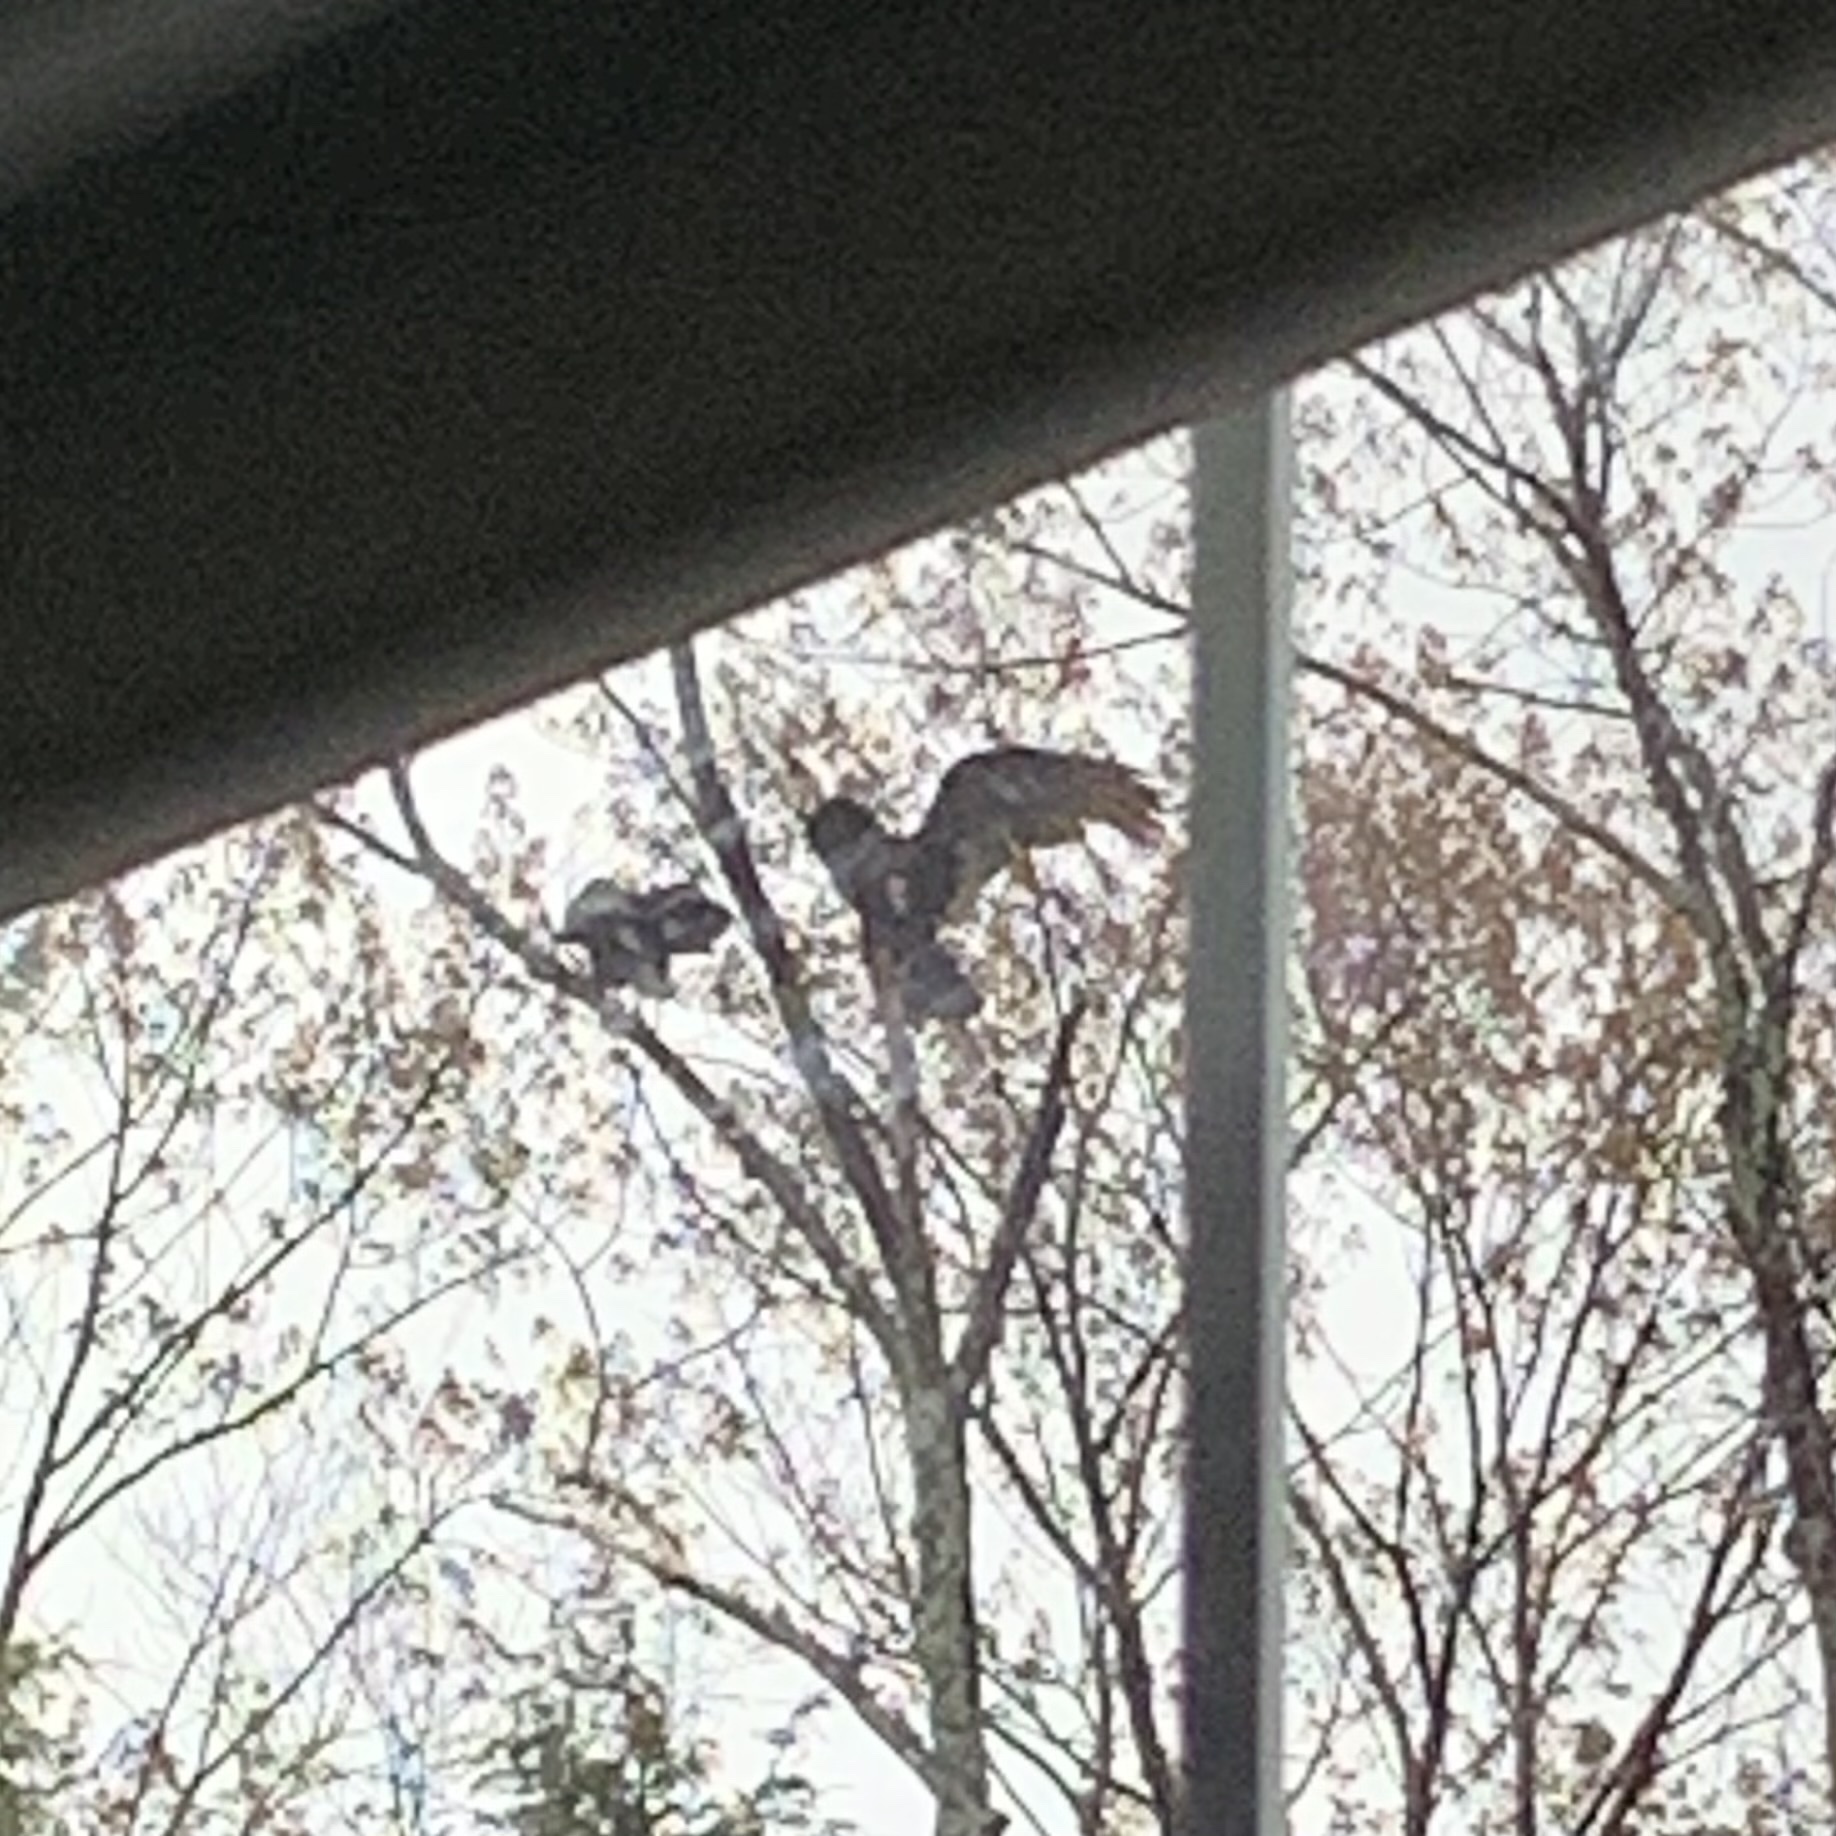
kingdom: Animalia
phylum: Chordata
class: Aves
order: Accipitriformes
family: Cathartidae
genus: Cathartes
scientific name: Cathartes aura
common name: Turkey vulture
